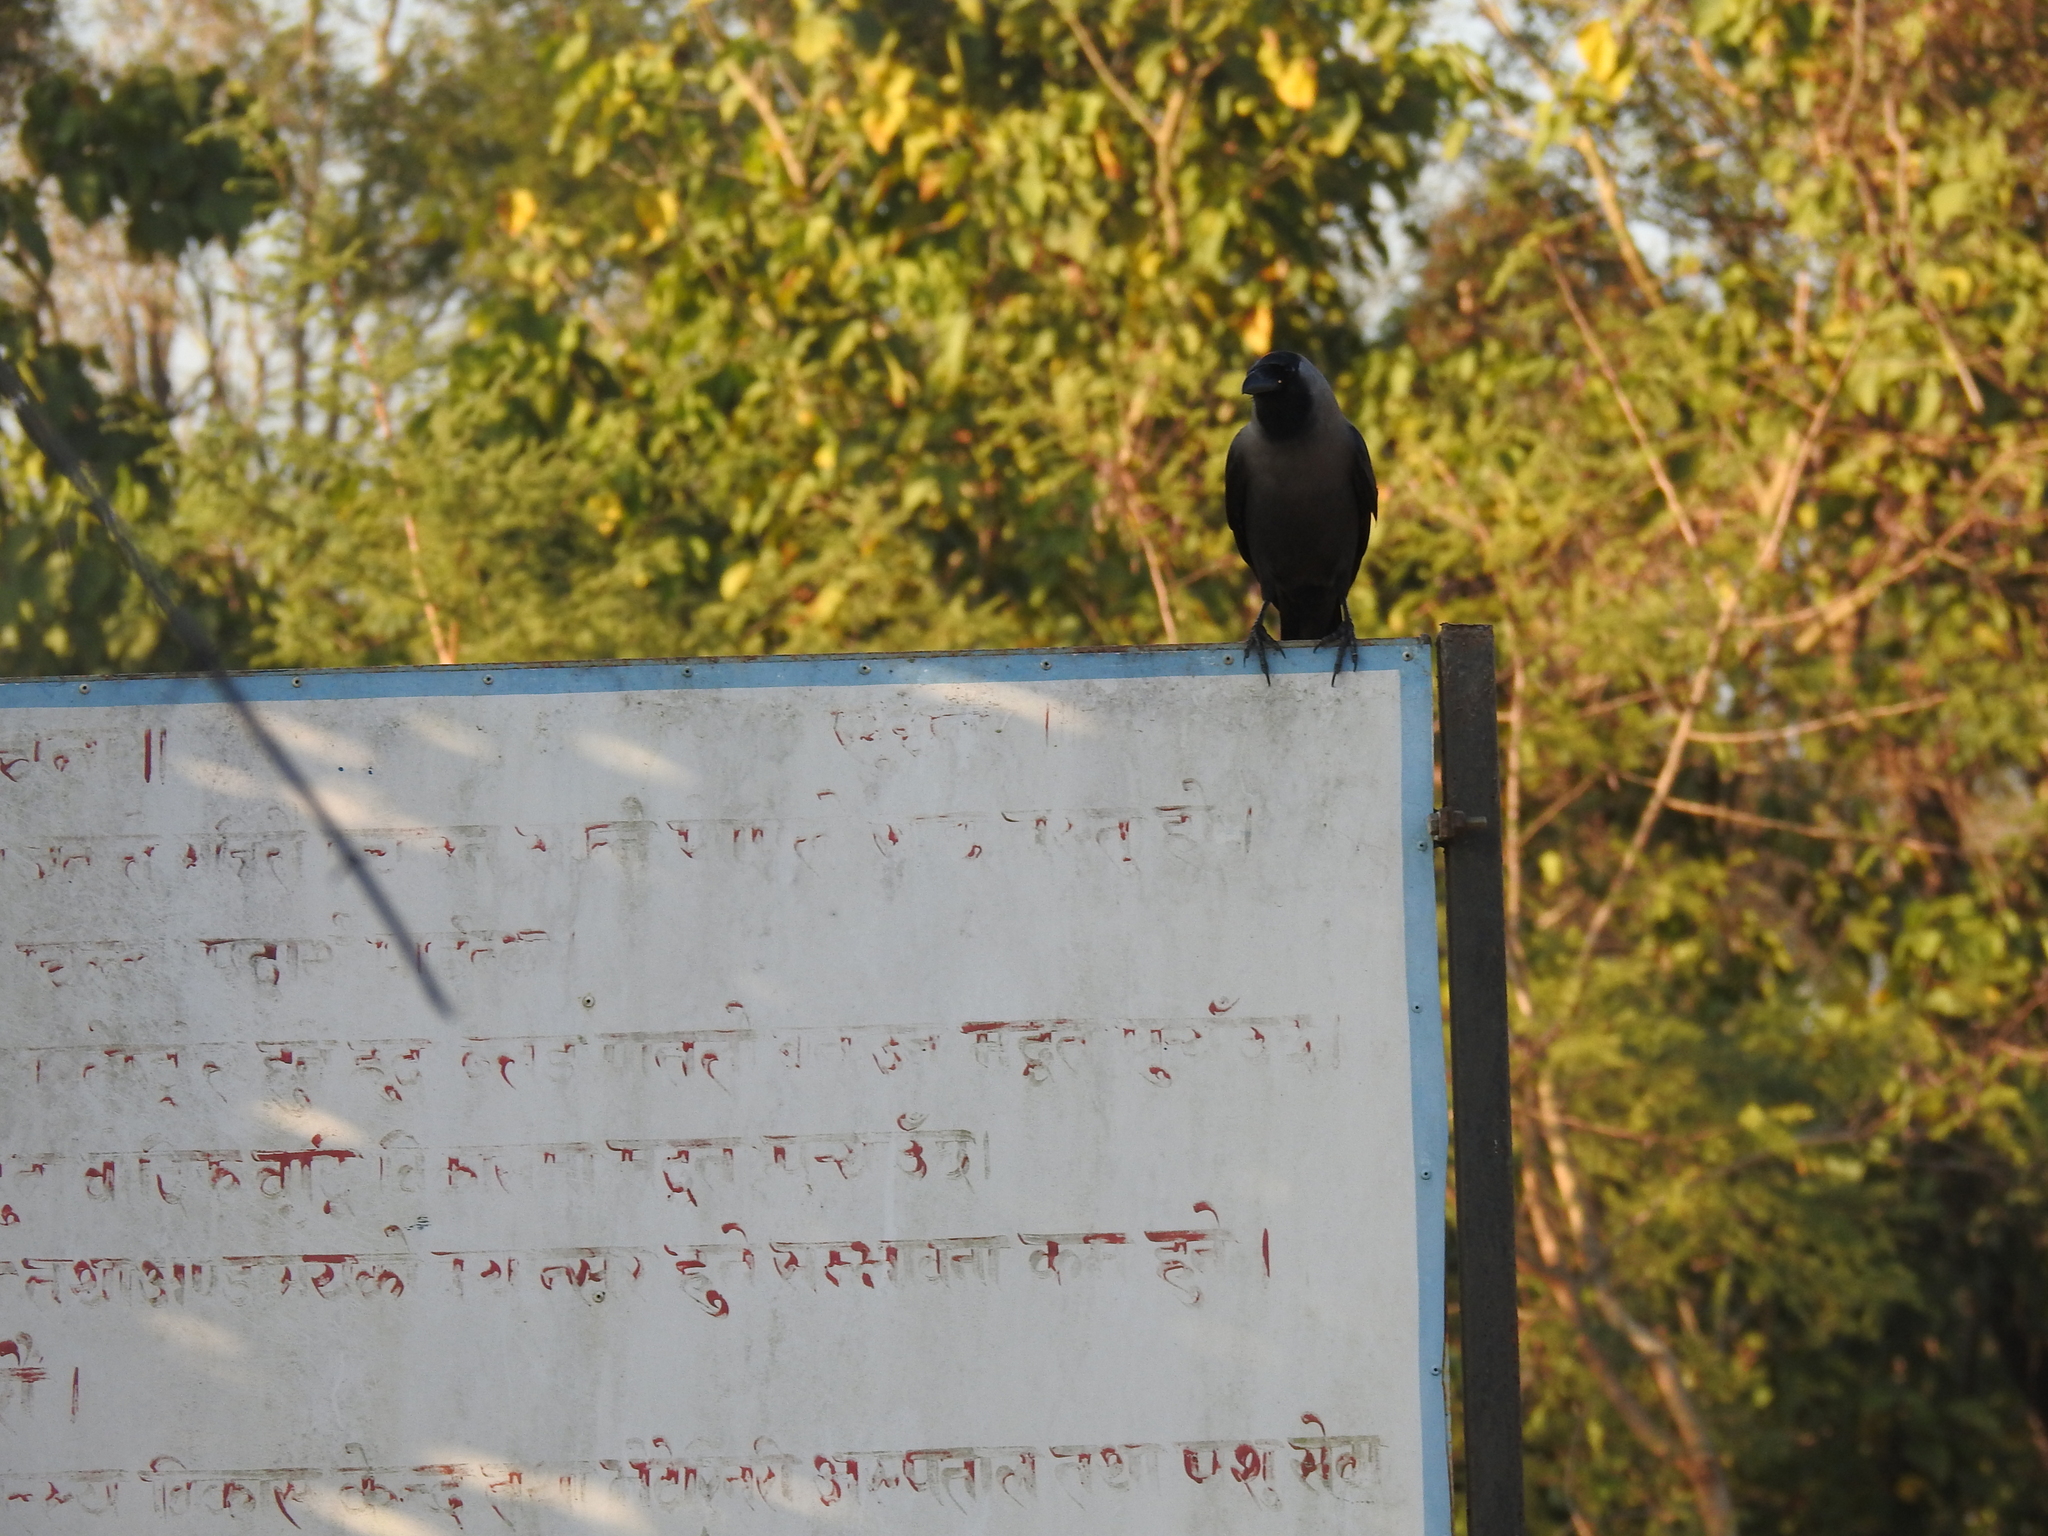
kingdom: Animalia
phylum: Chordata
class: Aves
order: Passeriformes
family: Corvidae
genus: Corvus
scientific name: Corvus splendens
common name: House crow
